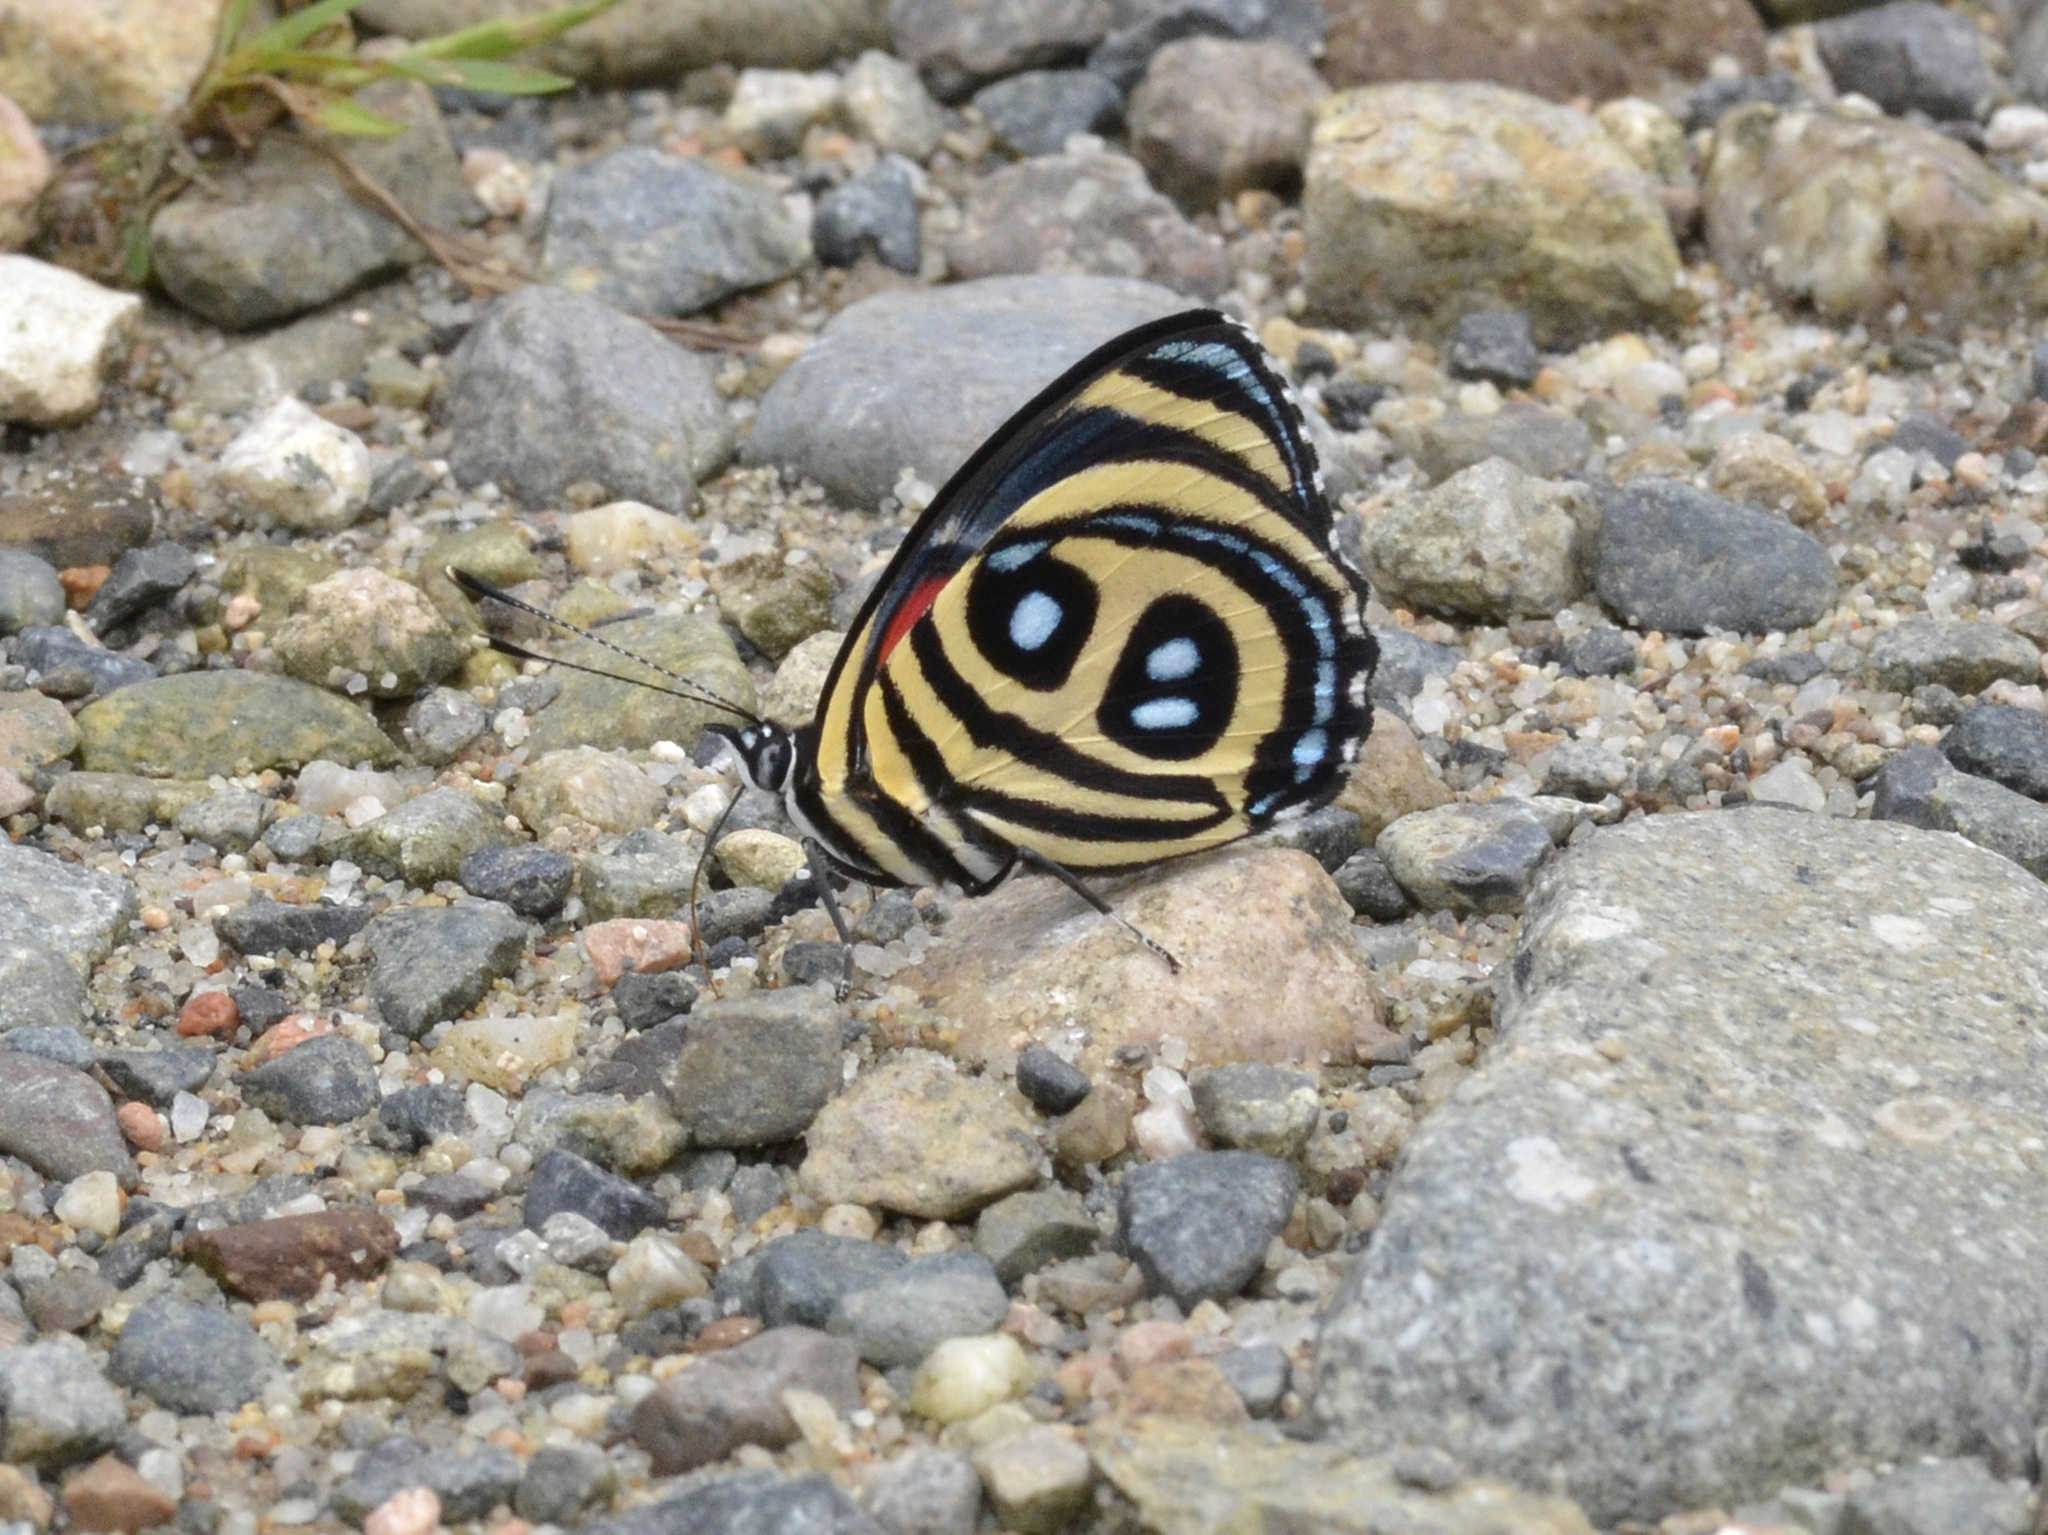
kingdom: Animalia
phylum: Arthropoda
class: Insecta
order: Lepidoptera
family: Nymphalidae
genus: Catagramma
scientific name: Catagramma pyracmon
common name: Google-eyed eighty-eight
